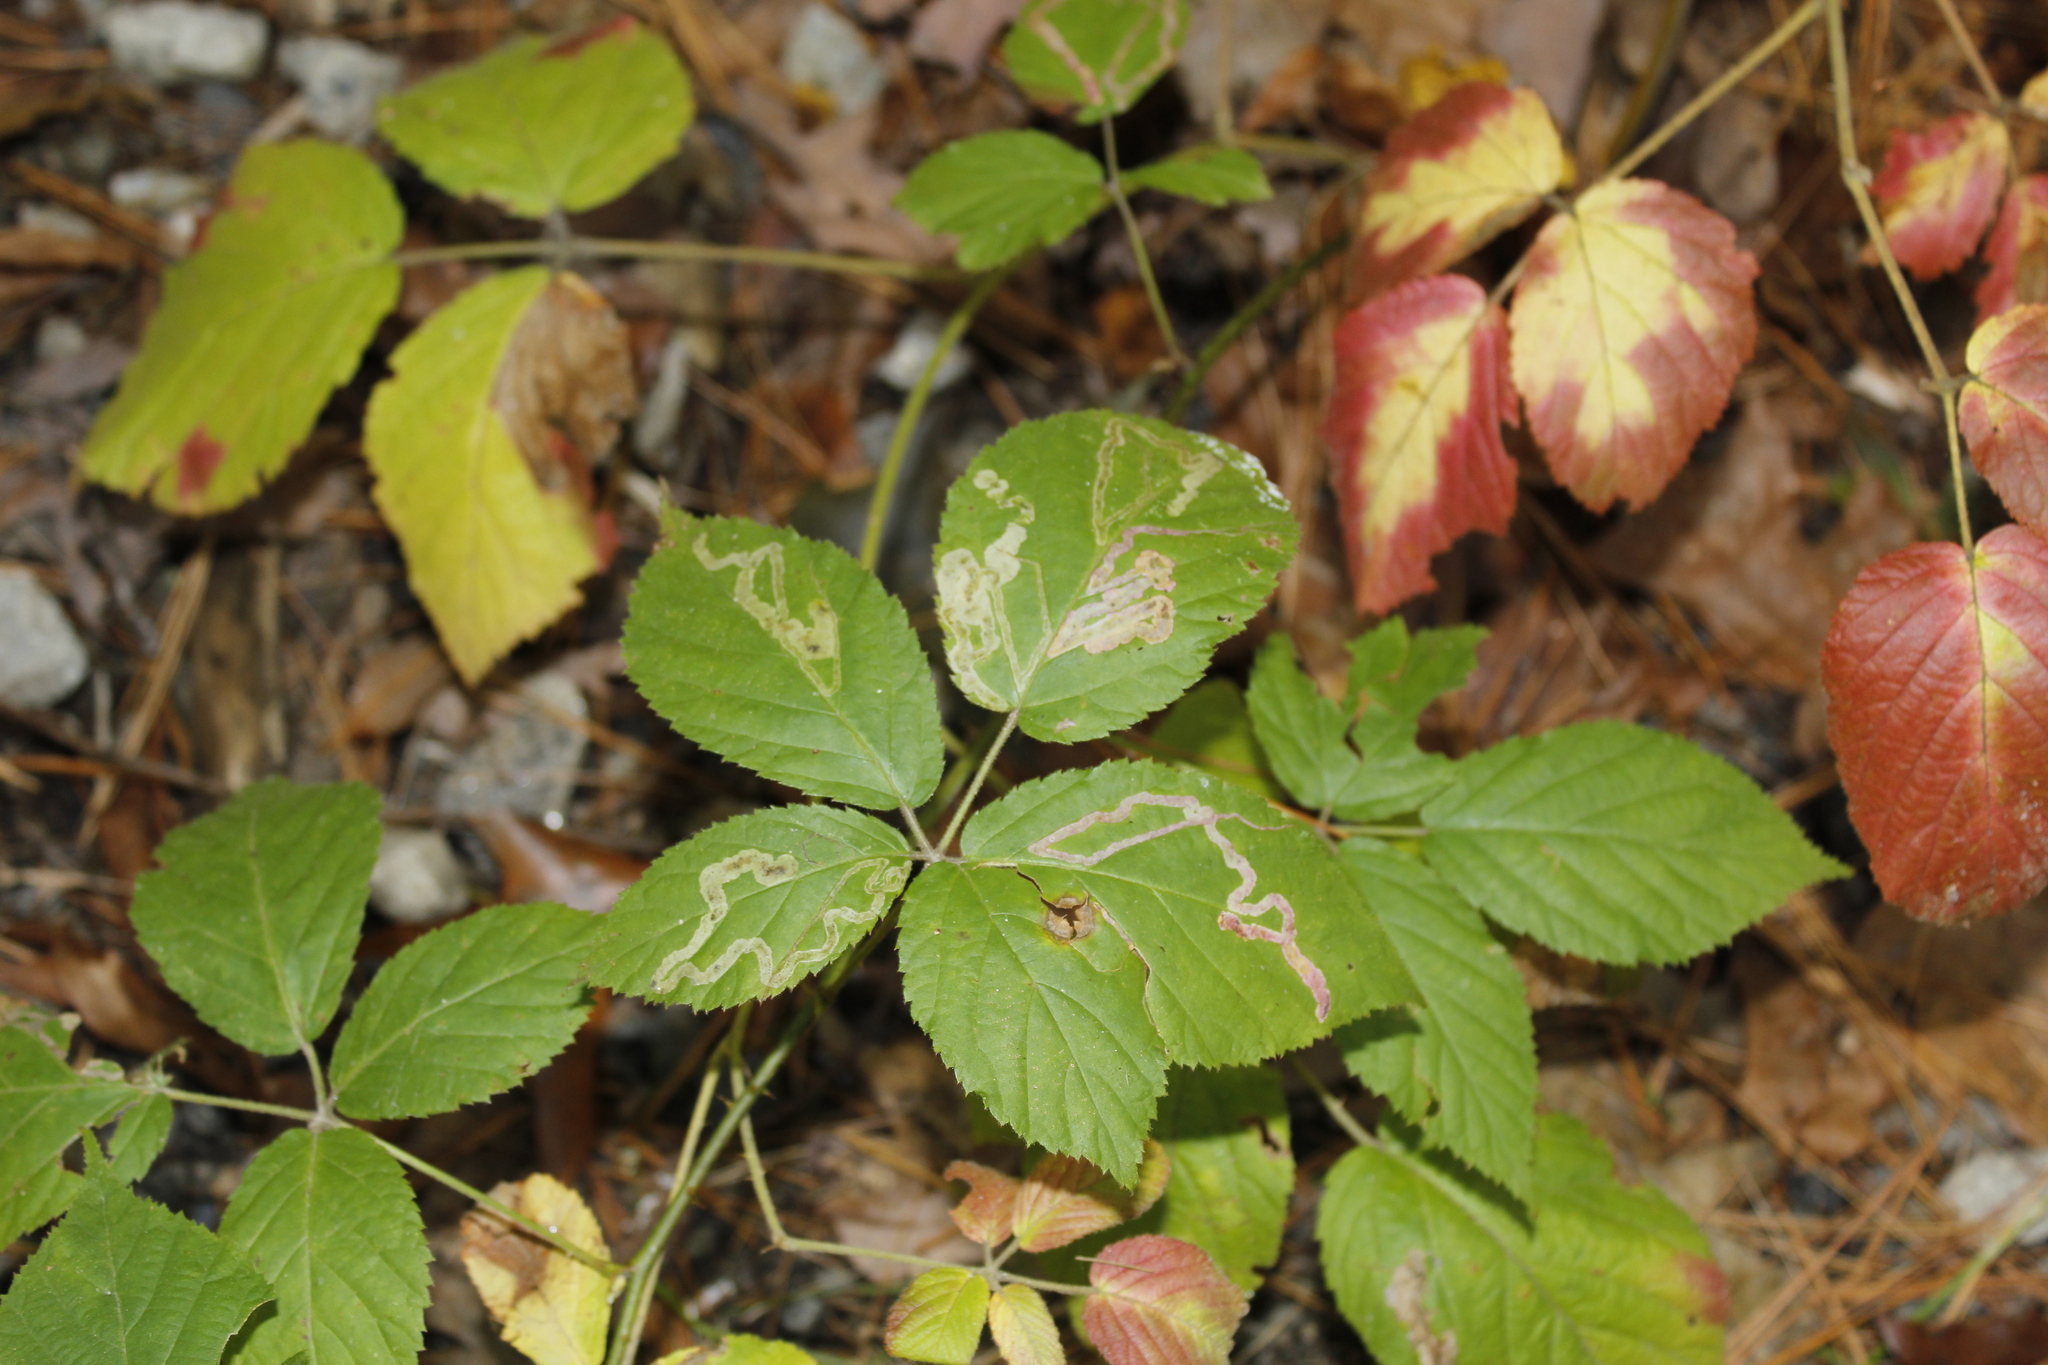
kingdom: Animalia
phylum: Arthropoda
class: Insecta
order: Diptera
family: Agromyzidae
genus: Agromyza
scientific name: Agromyza vockerothi
